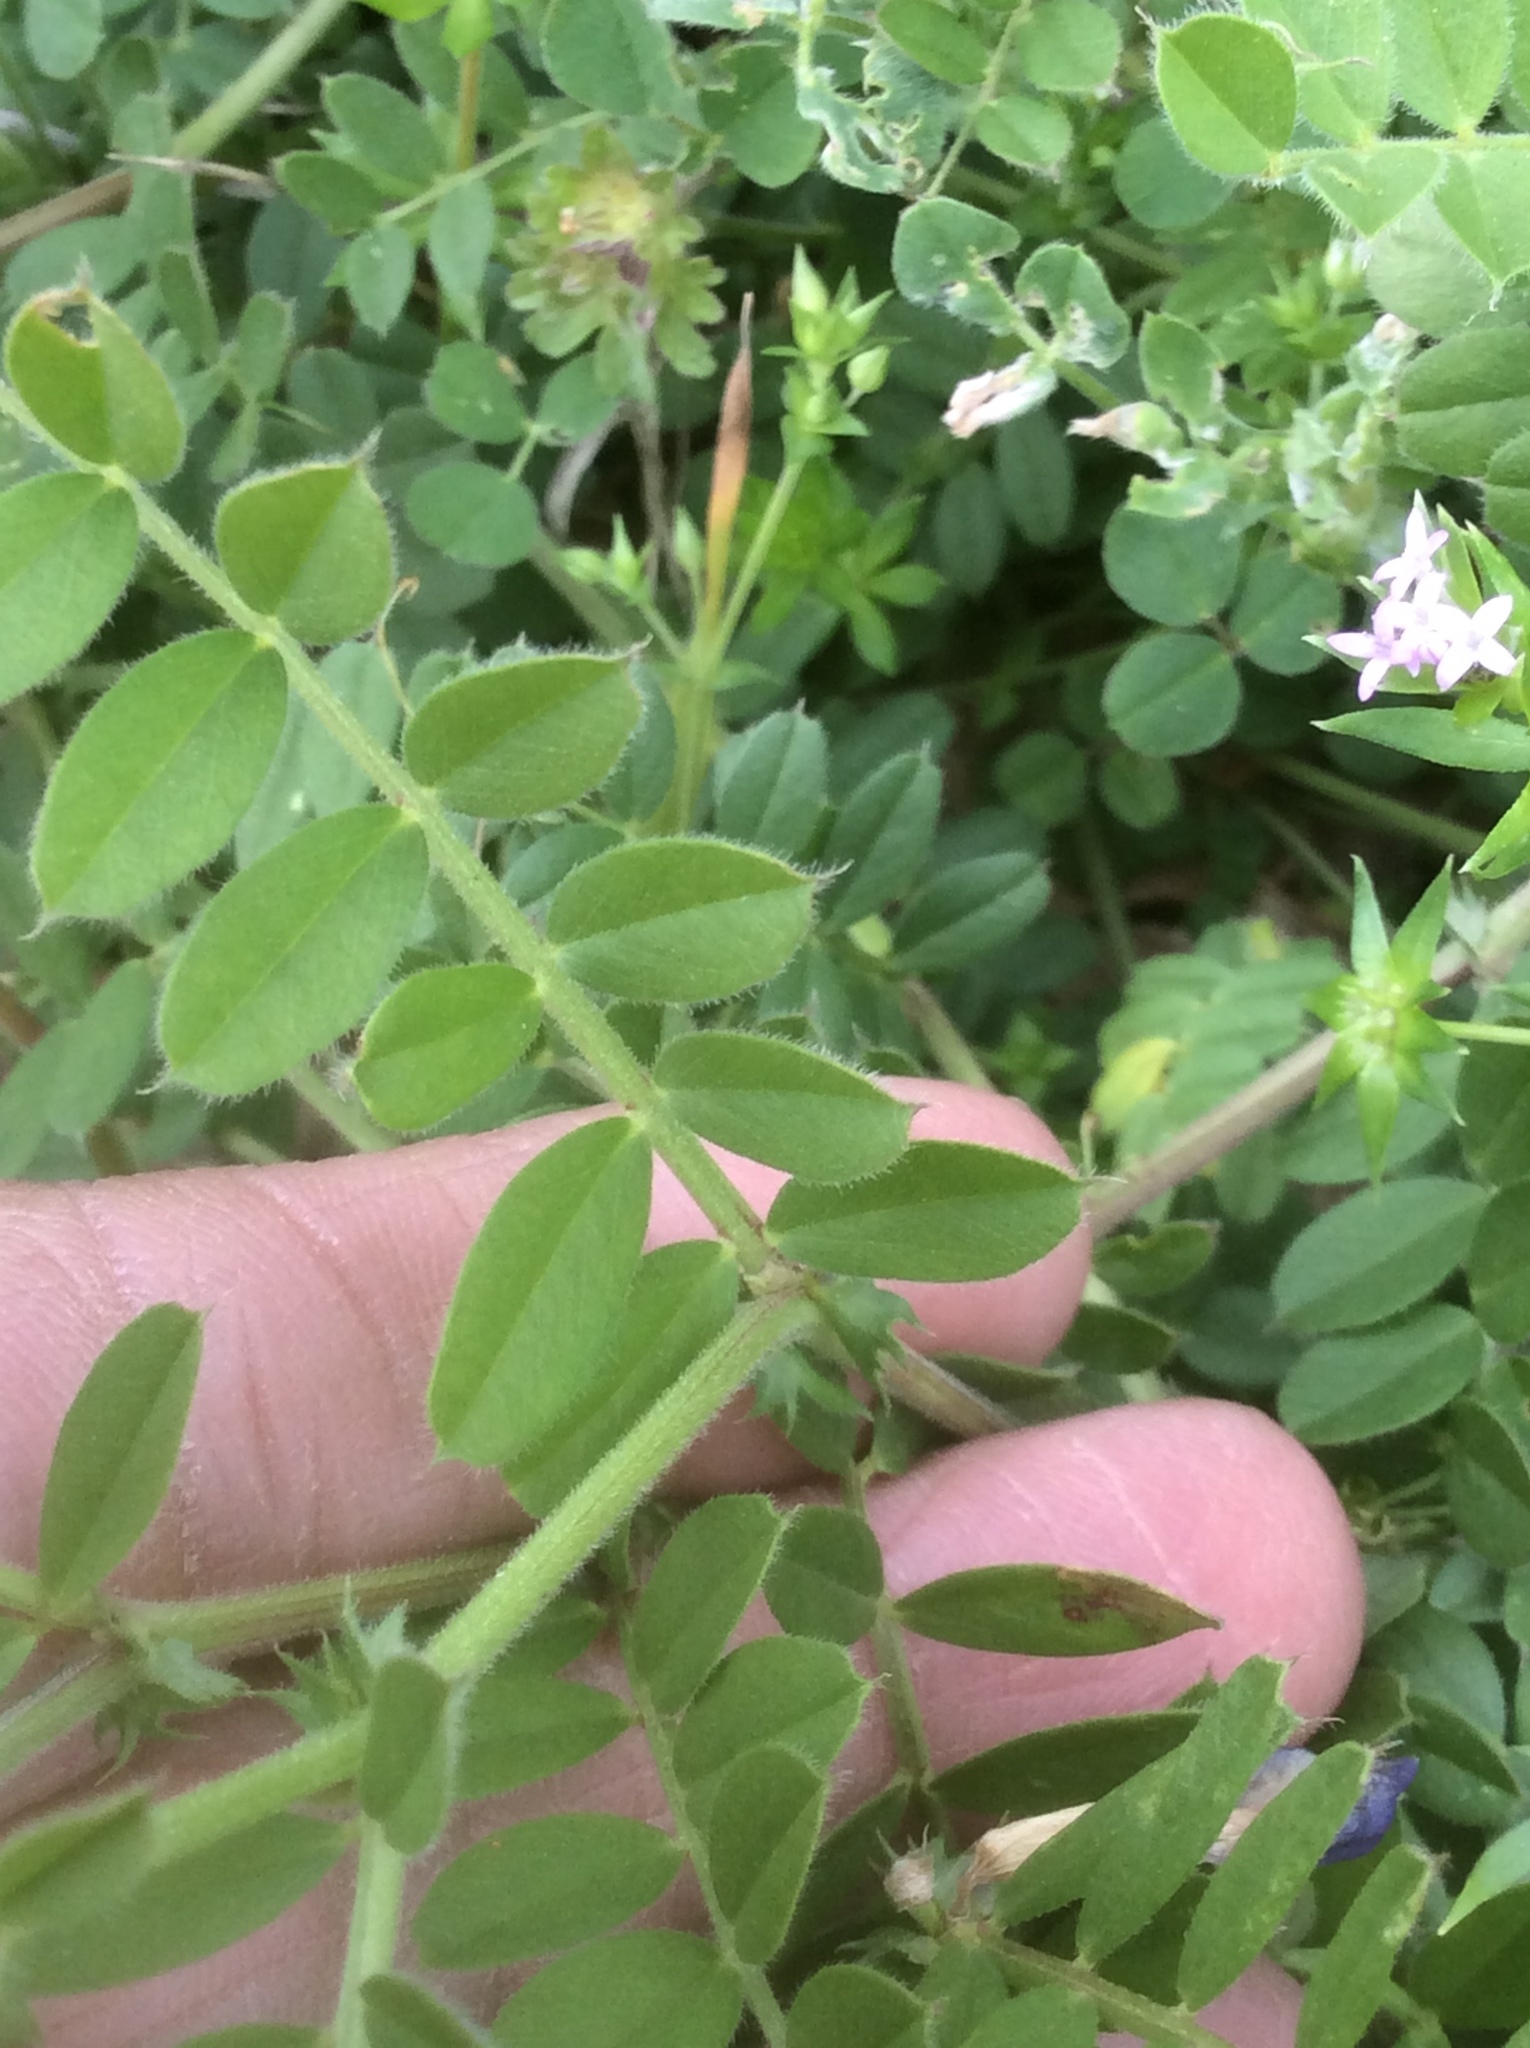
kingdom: Plantae
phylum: Tracheophyta
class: Magnoliopsida
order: Fabales
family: Fabaceae
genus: Vicia
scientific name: Vicia sativa
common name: Garden vetch
